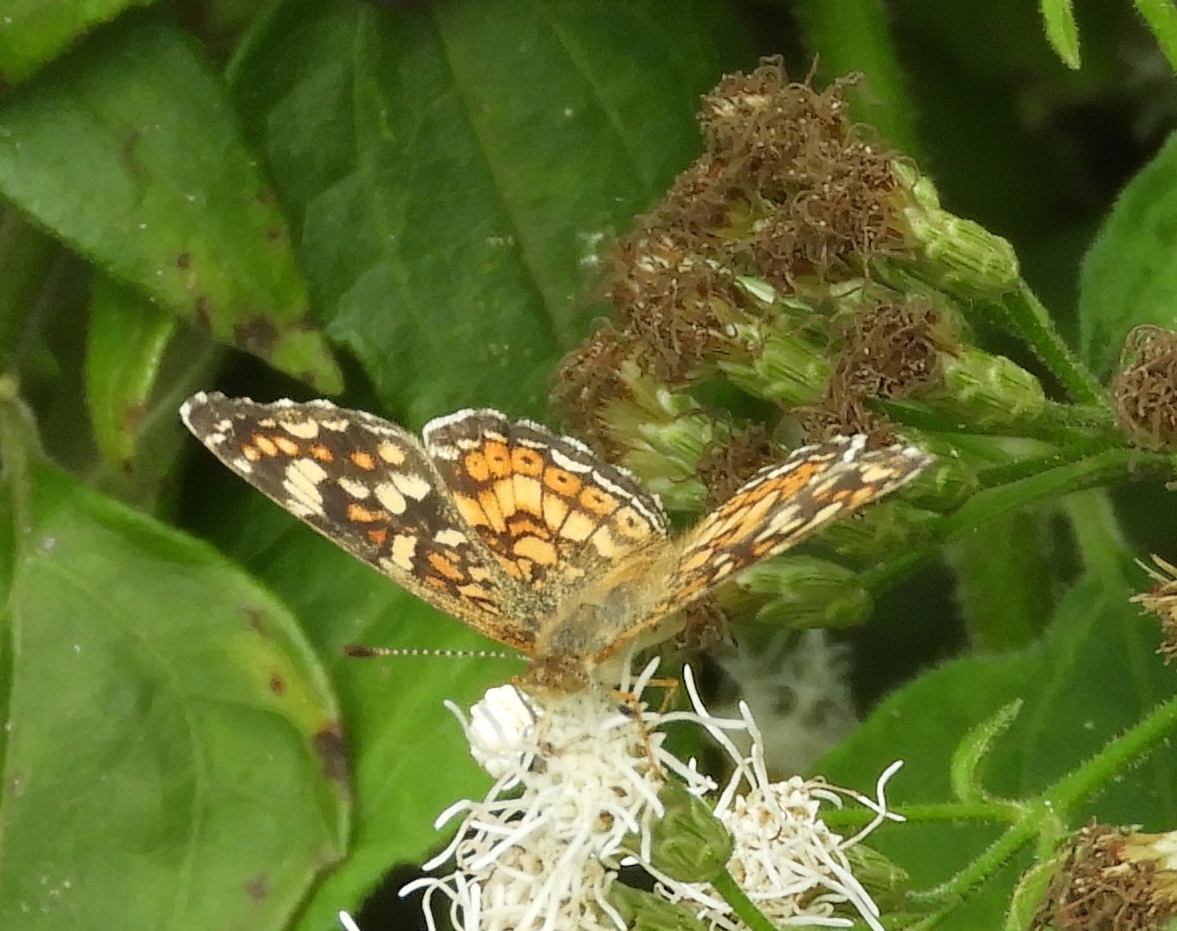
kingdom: Animalia
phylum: Arthropoda
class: Insecta
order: Lepidoptera
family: Nymphalidae
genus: Phyciodes
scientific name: Phyciodes picta
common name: Painted crescent
